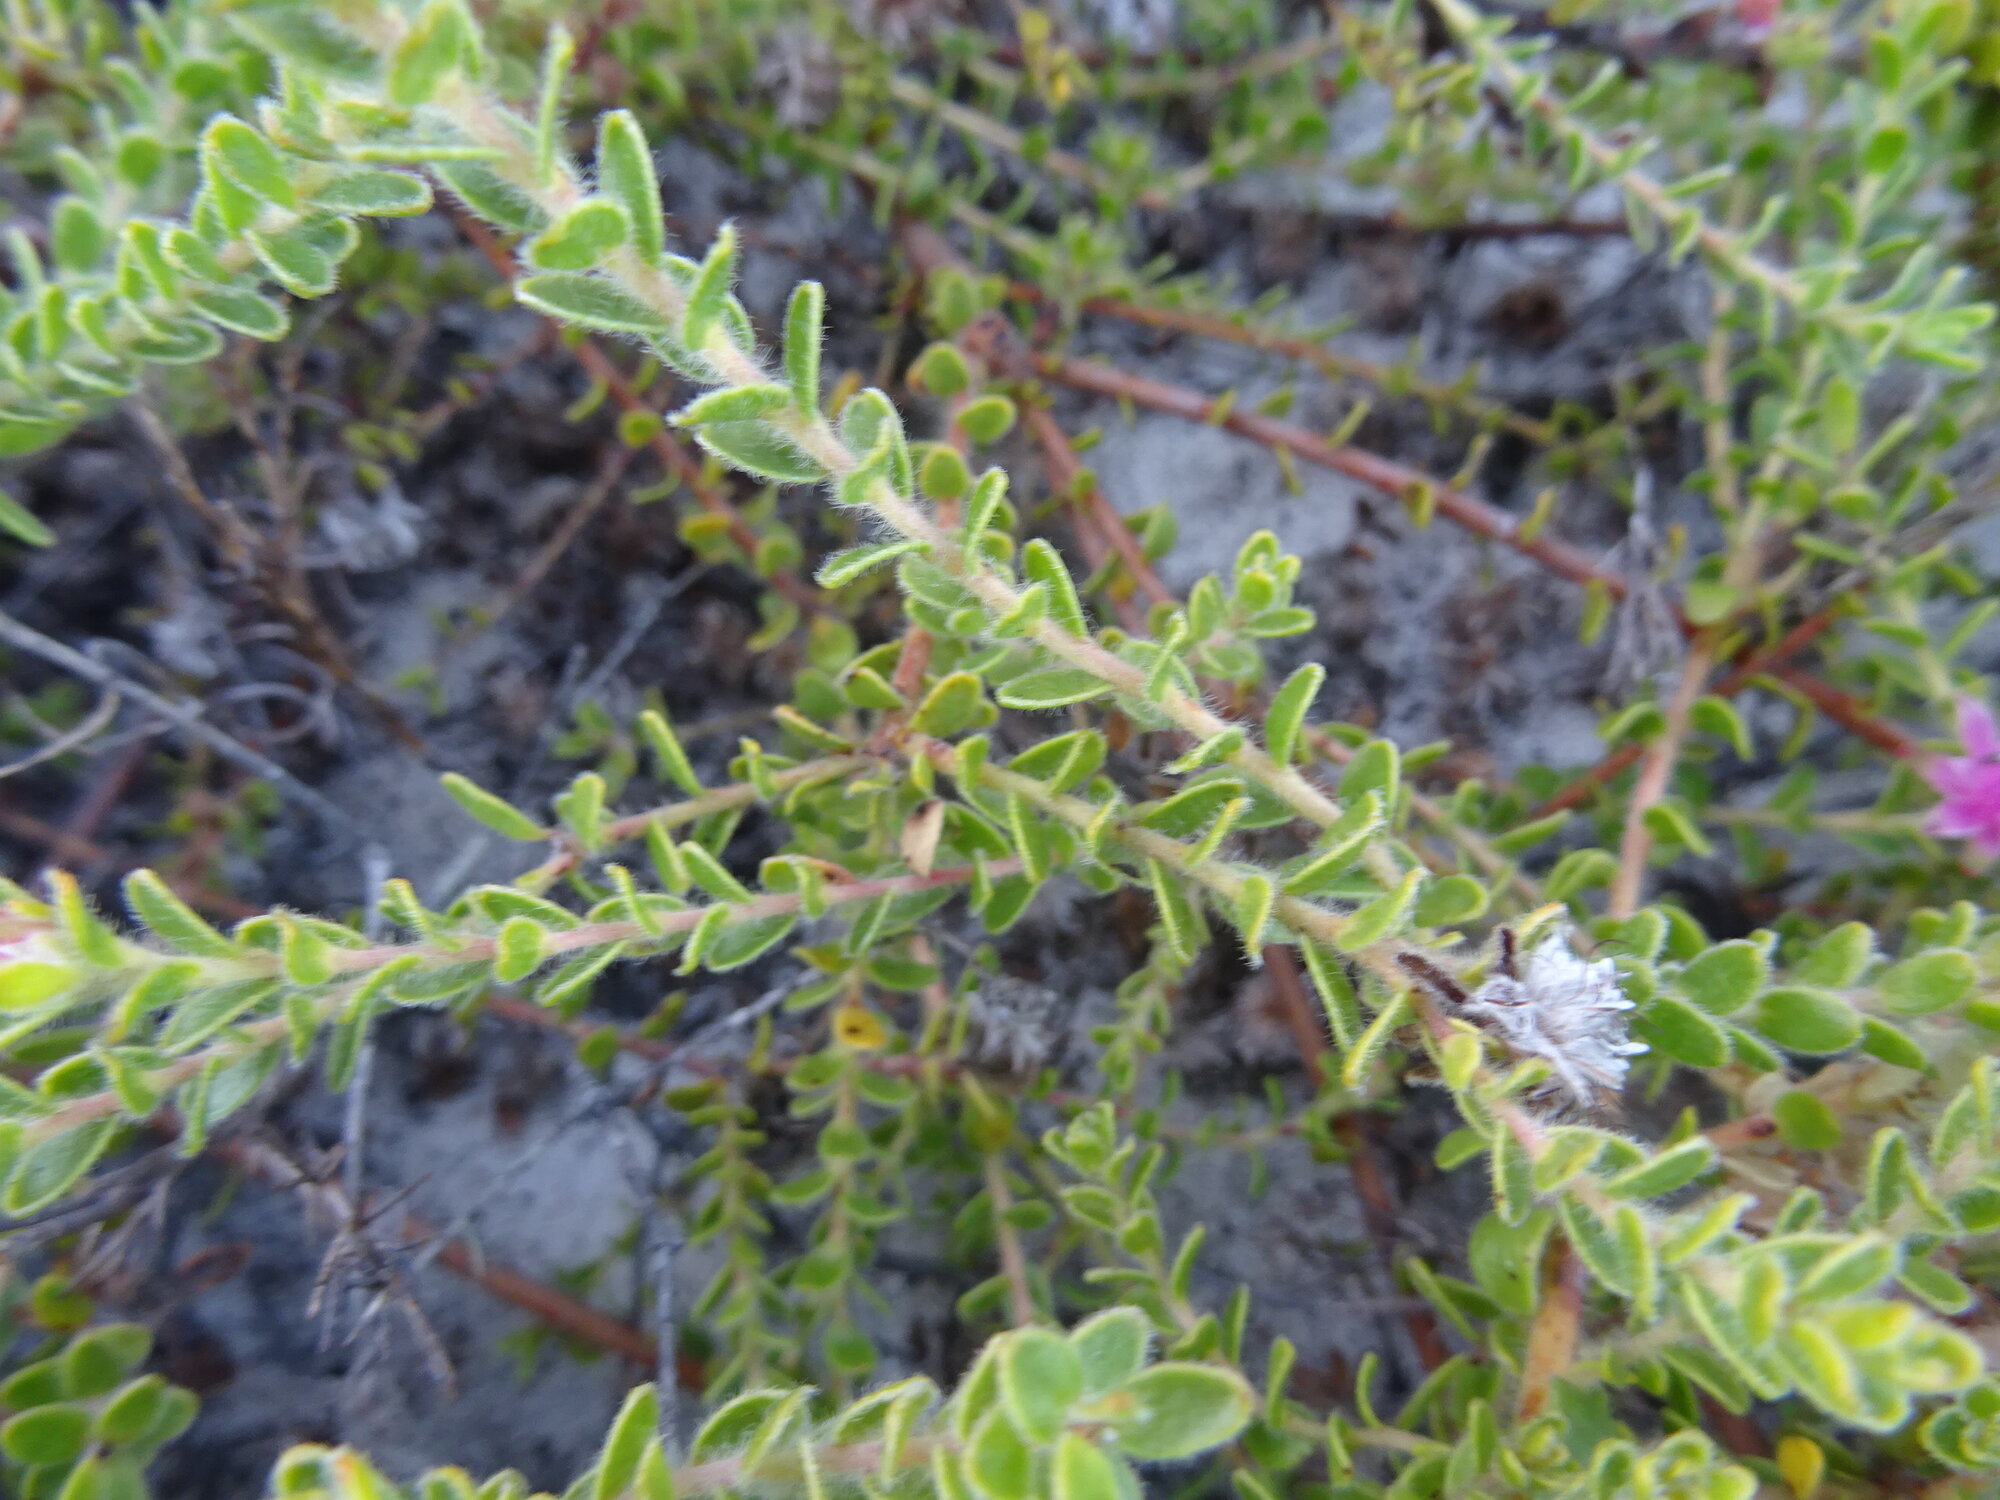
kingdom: Plantae
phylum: Tracheophyta
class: Magnoliopsida
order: Proteales
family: Proteaceae
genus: Diastella
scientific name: Diastella divaricata
